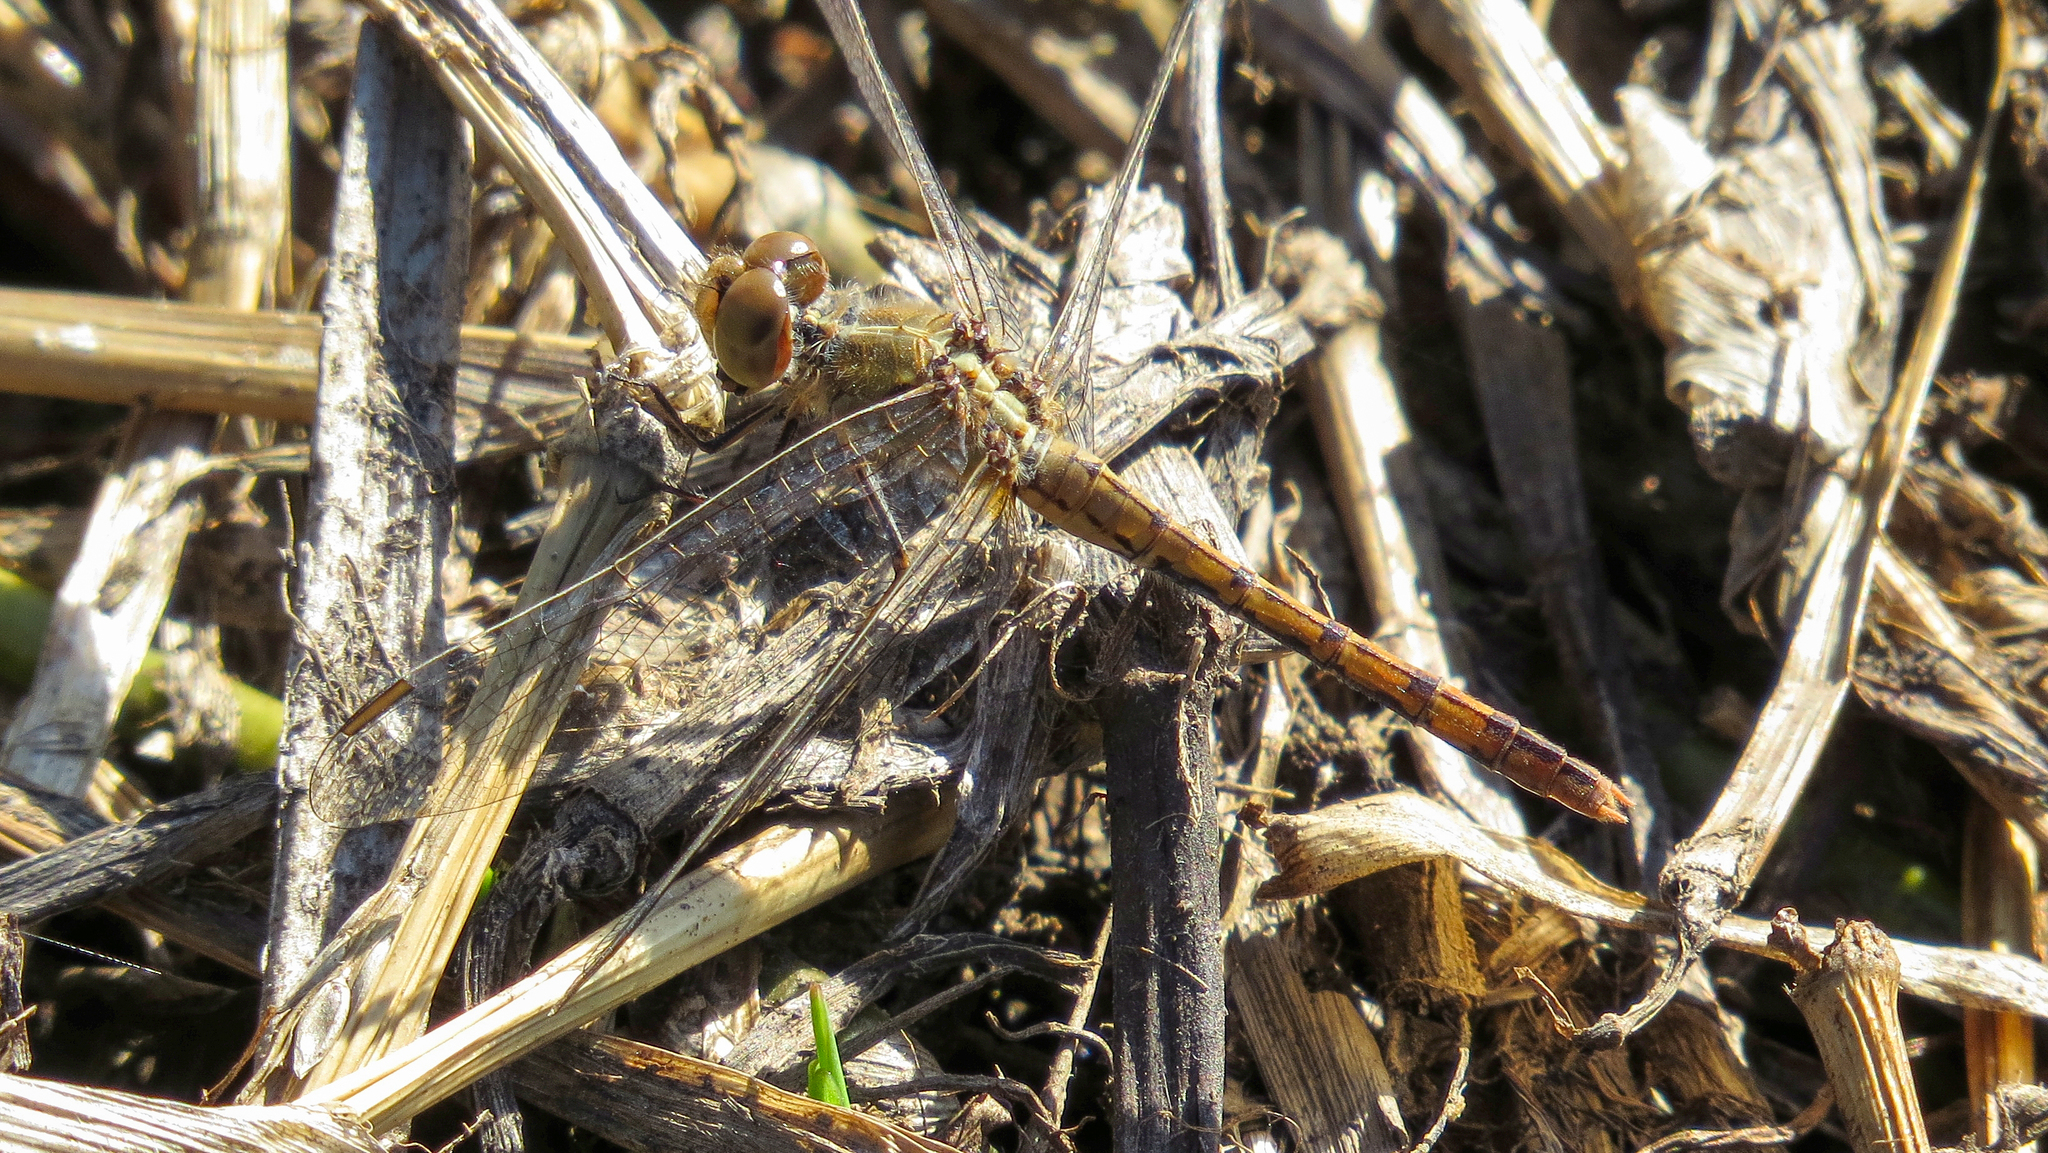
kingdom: Animalia
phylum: Arthropoda
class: Insecta
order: Odonata
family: Libellulidae
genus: Diplacodes
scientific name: Diplacodes bipunctata
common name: Red percher dragonfly
